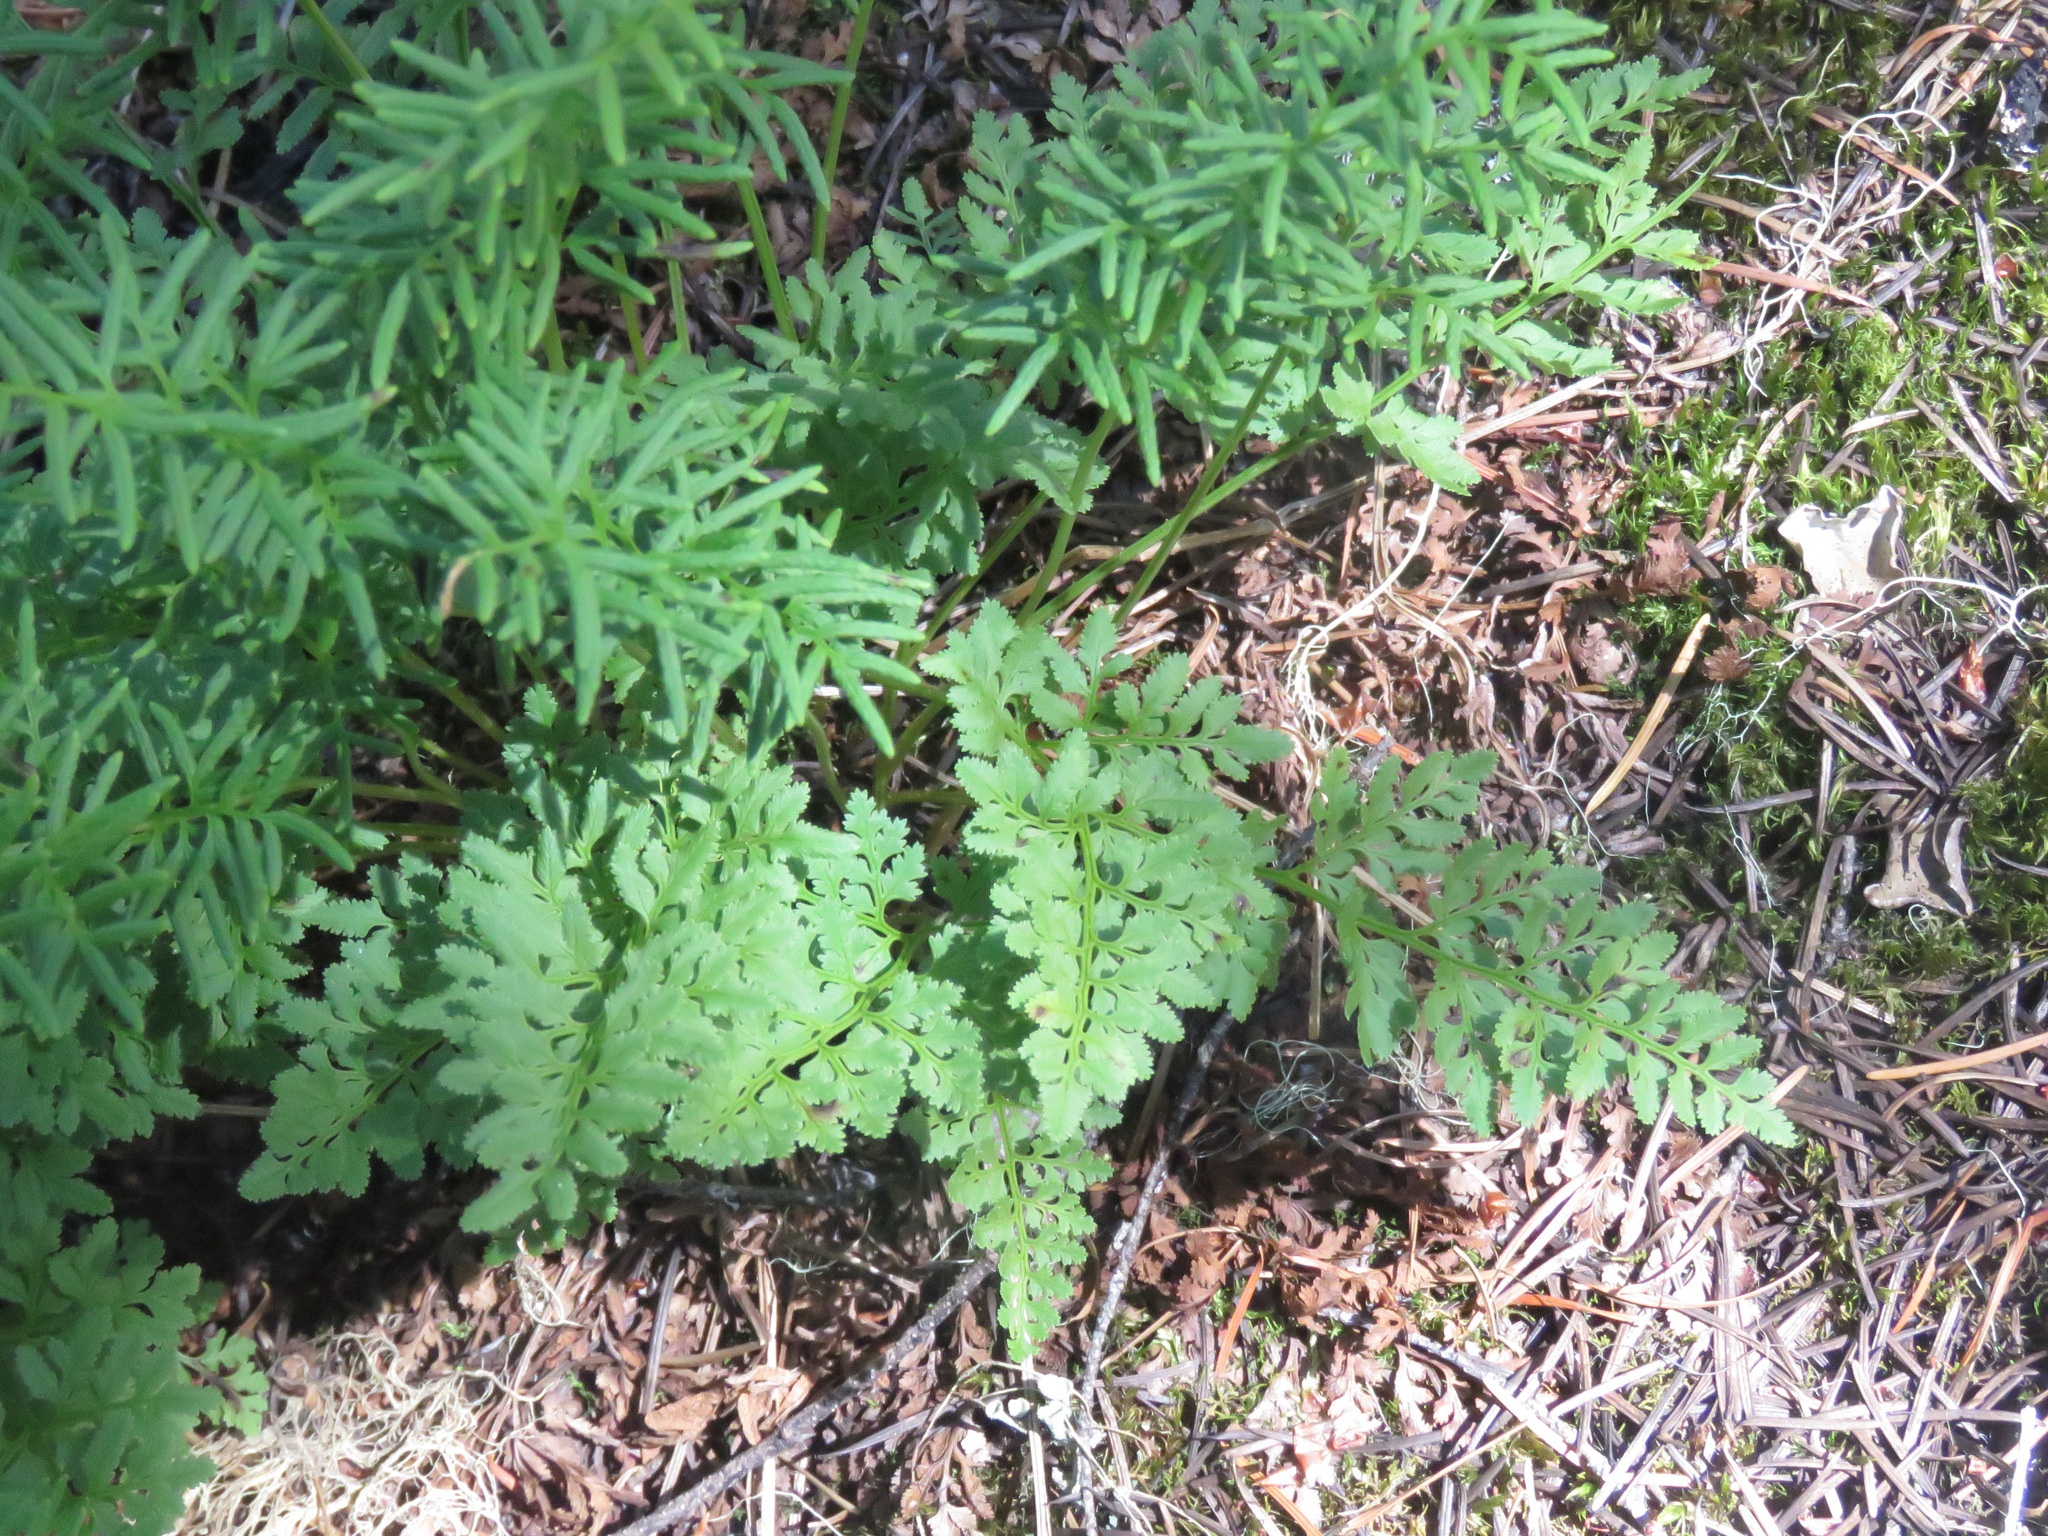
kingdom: Plantae
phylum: Tracheophyta
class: Polypodiopsida
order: Polypodiales
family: Pteridaceae
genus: Cryptogramma
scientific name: Cryptogramma acrostichoides
